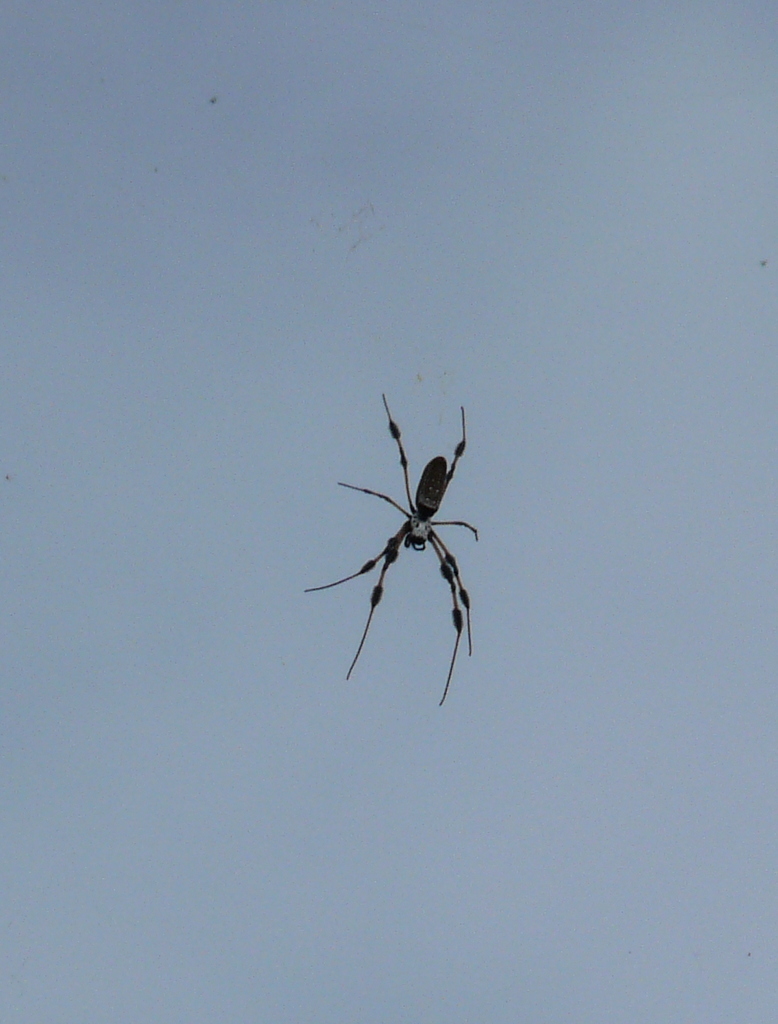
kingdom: Animalia
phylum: Arthropoda
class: Arachnida
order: Araneae
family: Araneidae
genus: Trichonephila
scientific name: Trichonephila clavipes
